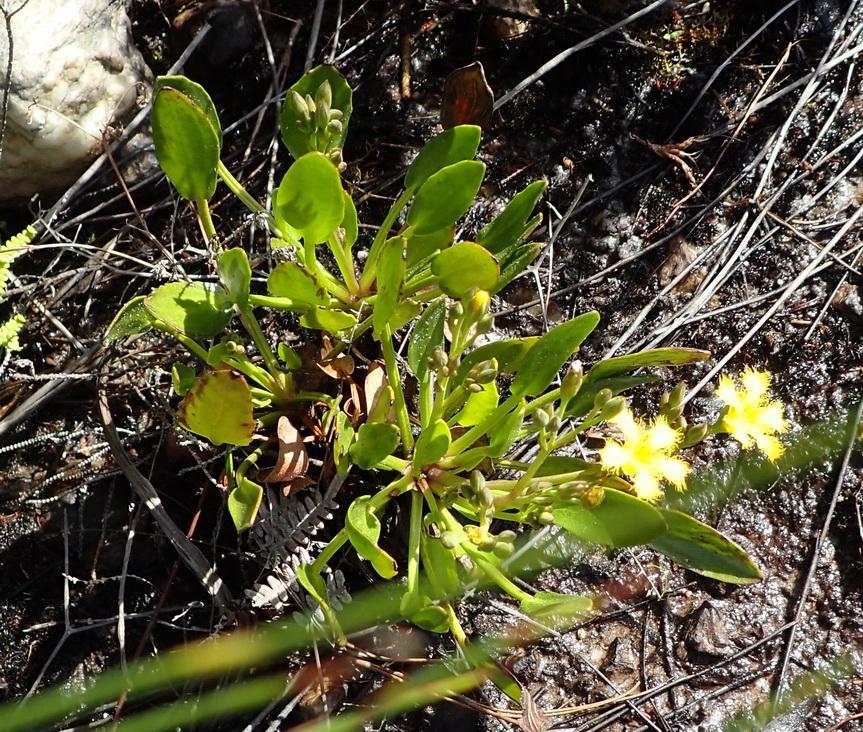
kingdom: Plantae
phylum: Tracheophyta
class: Magnoliopsida
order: Asterales
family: Menyanthaceae
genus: Villarsia
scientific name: Villarsia capensis
